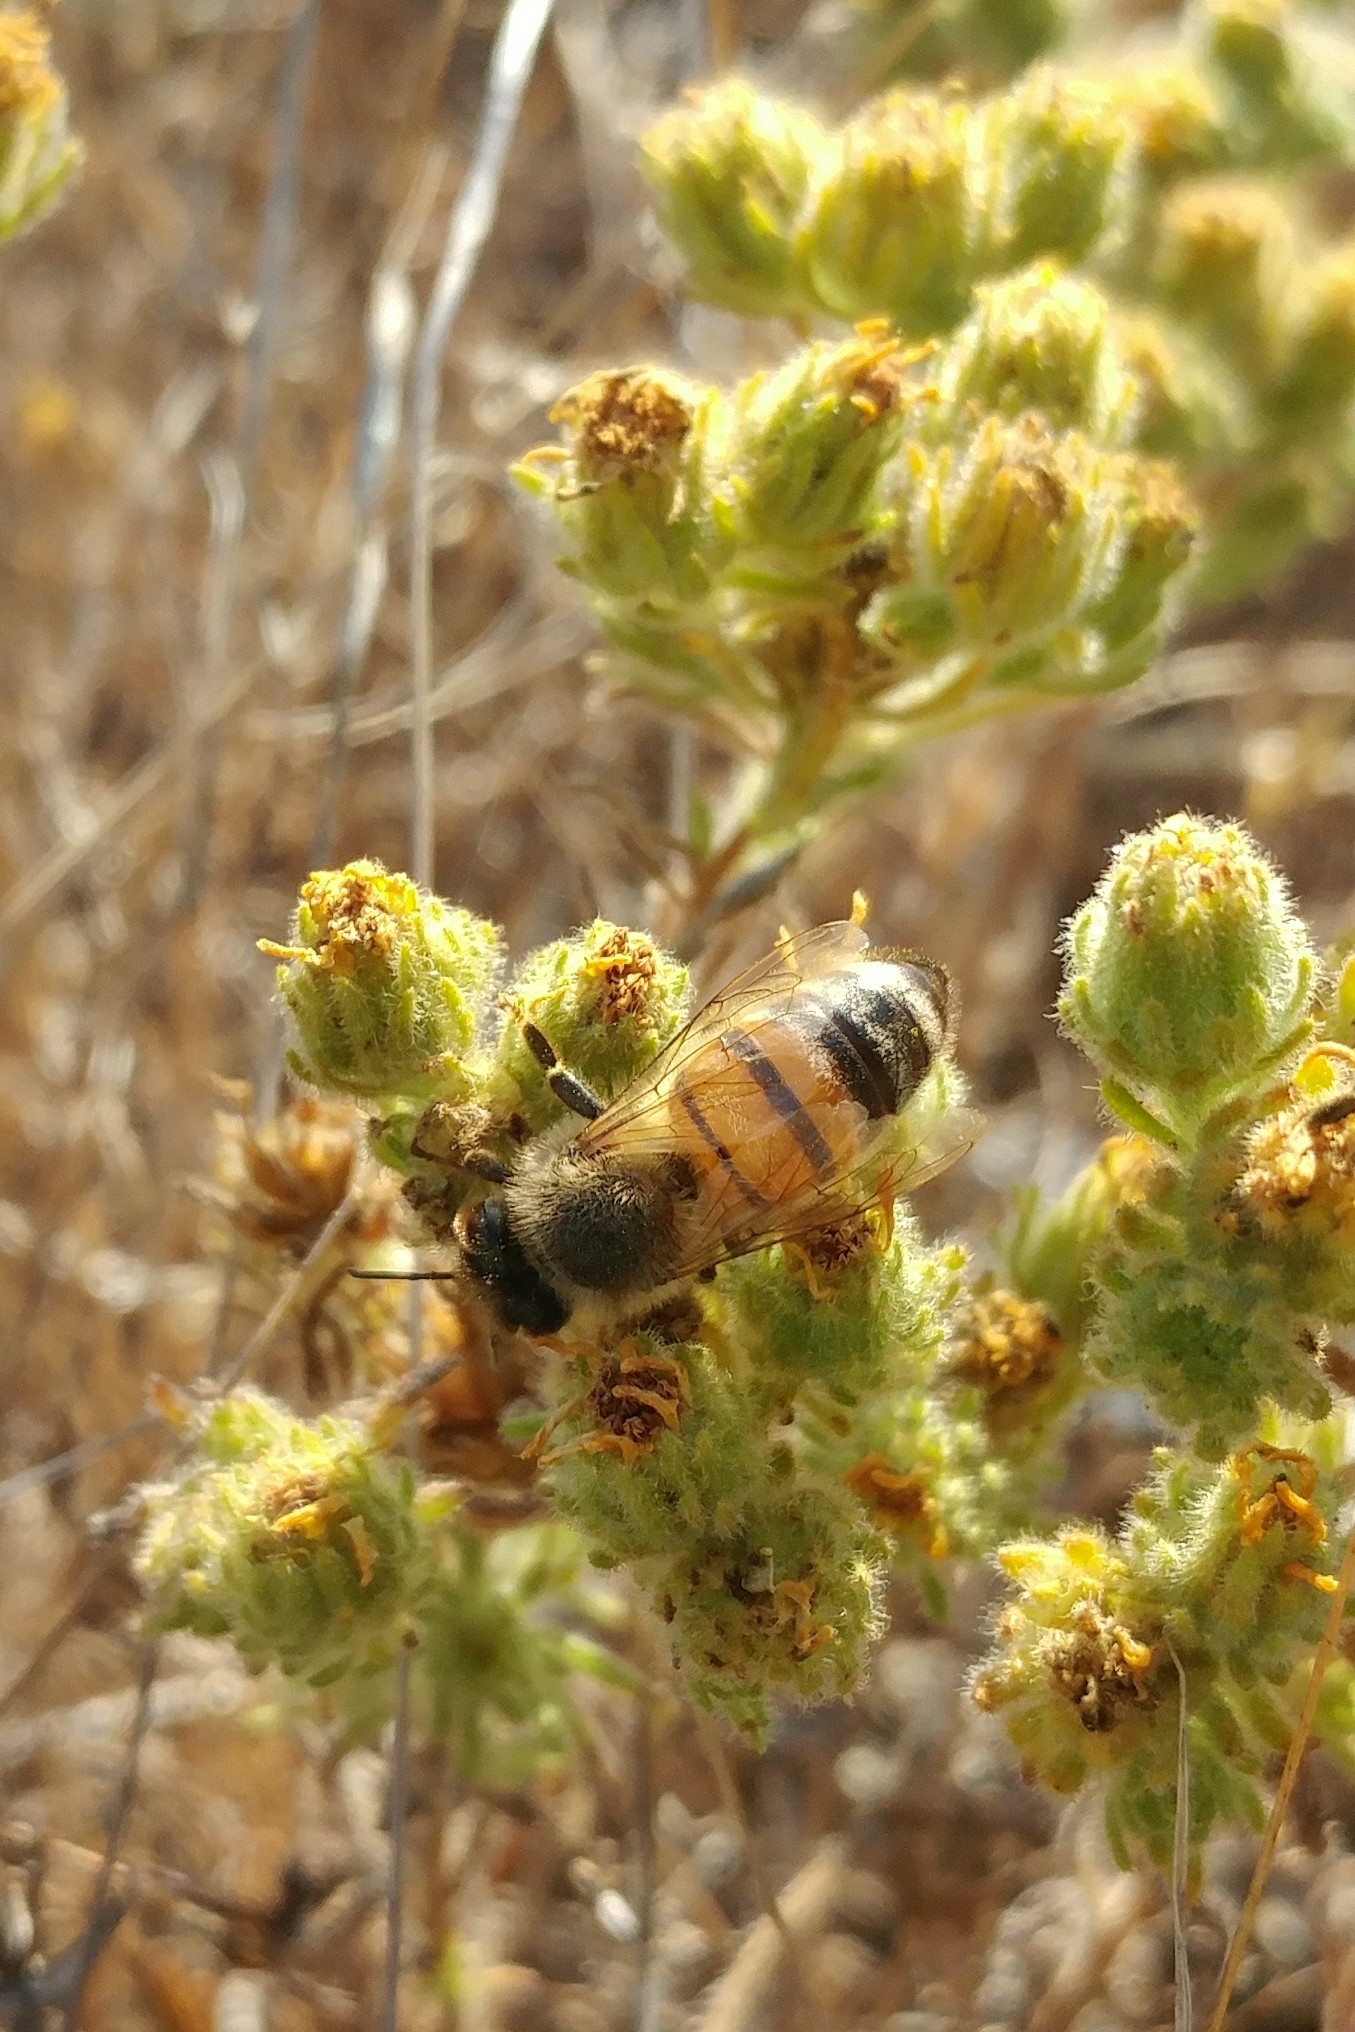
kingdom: Animalia
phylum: Arthropoda
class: Insecta
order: Hymenoptera
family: Apidae
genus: Apis
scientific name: Apis mellifera
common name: Honey bee
